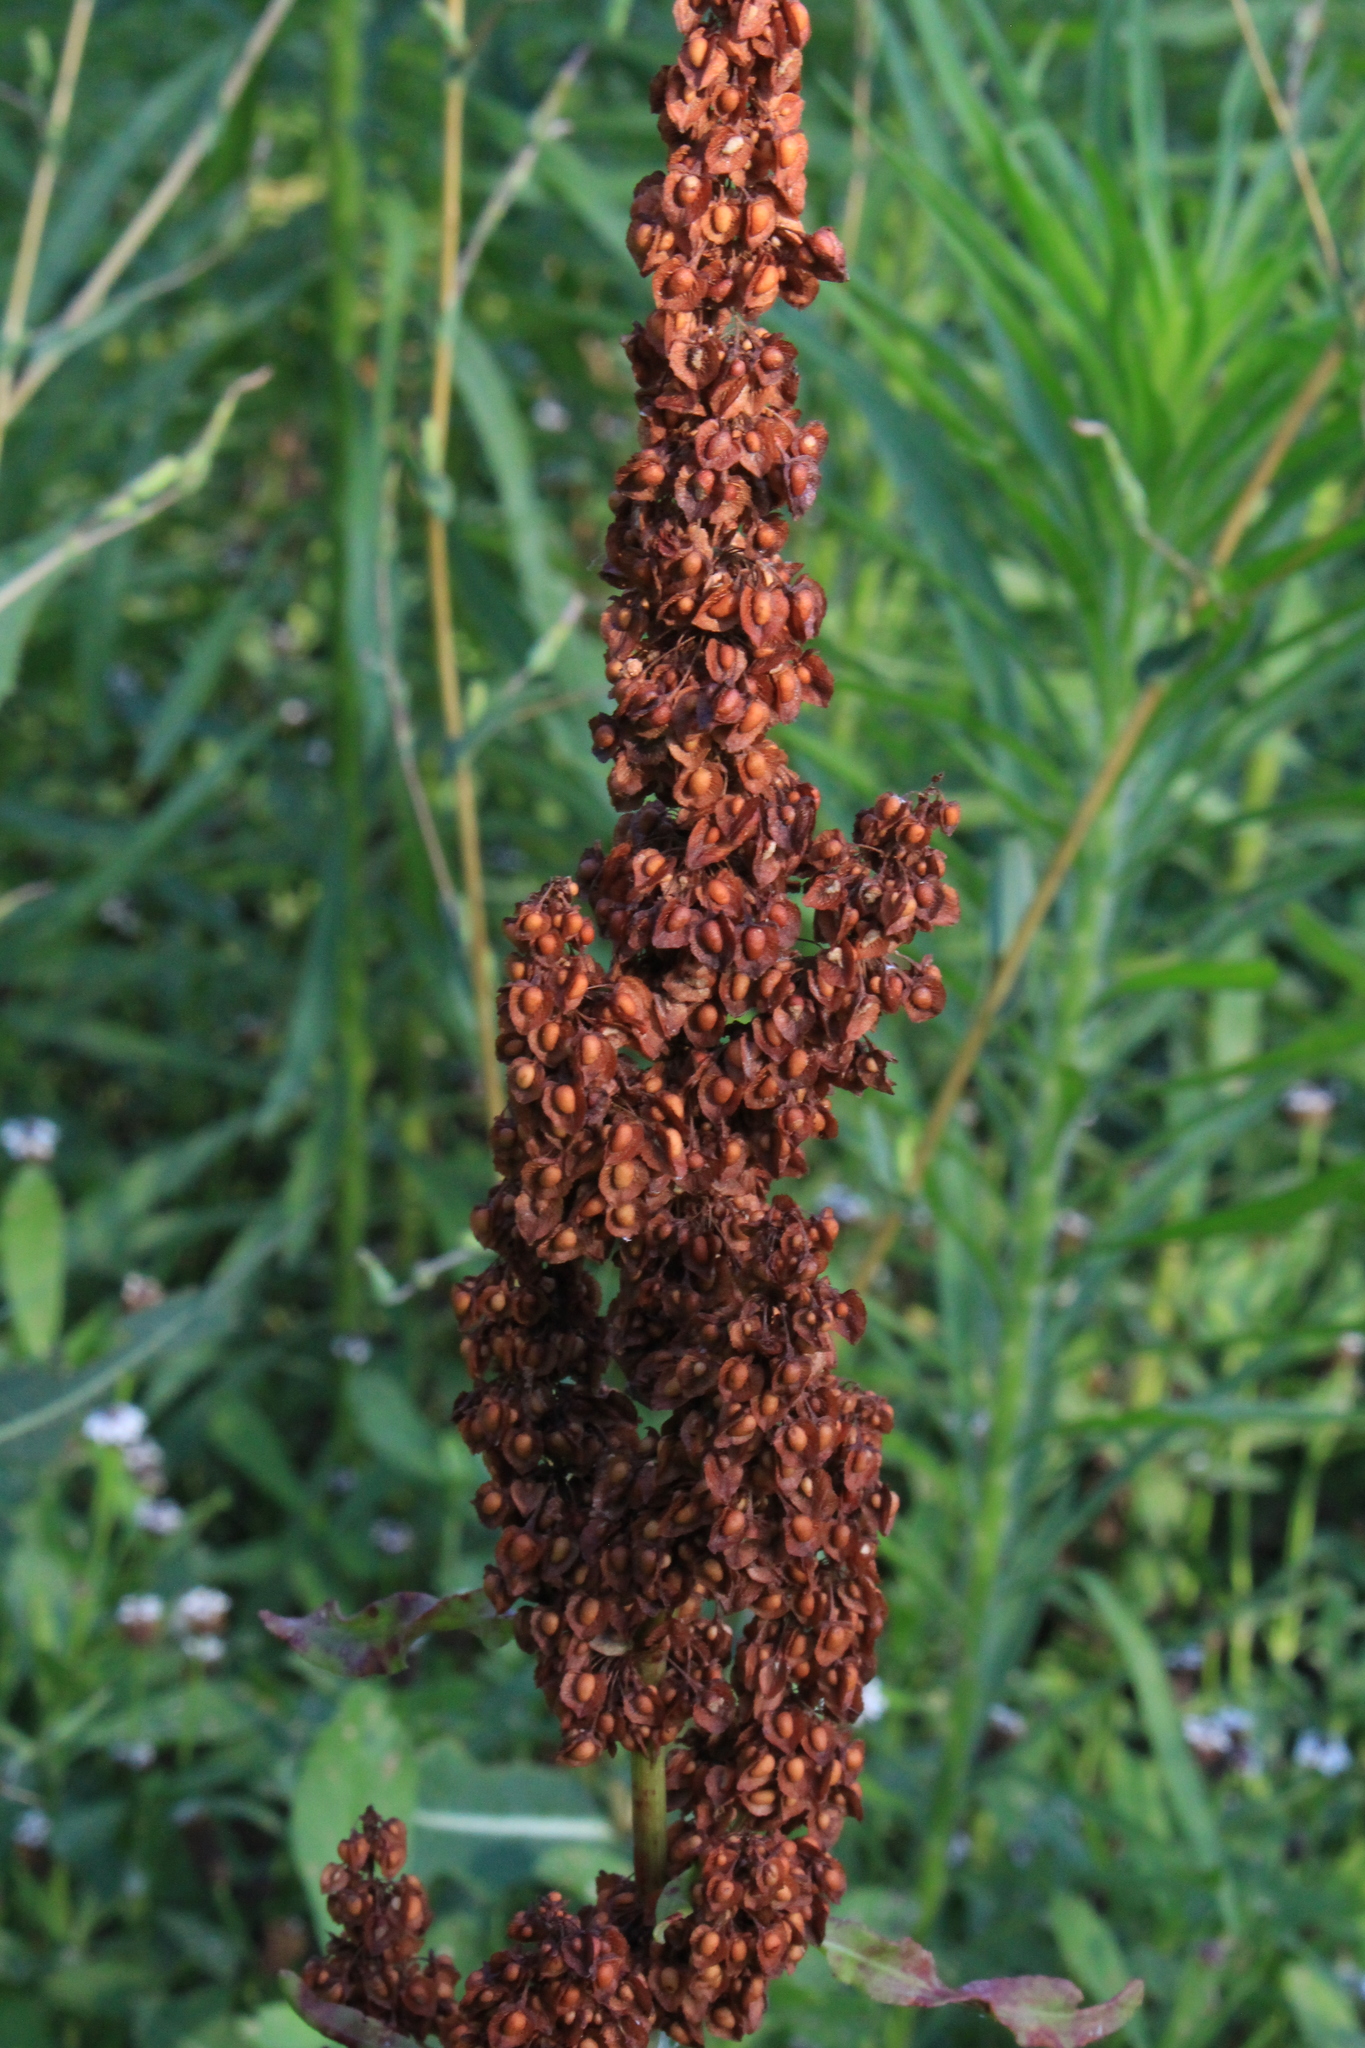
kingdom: Plantae
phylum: Tracheophyta
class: Magnoliopsida
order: Caryophyllales
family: Polygonaceae
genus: Rumex
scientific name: Rumex crispus
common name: Curled dock
